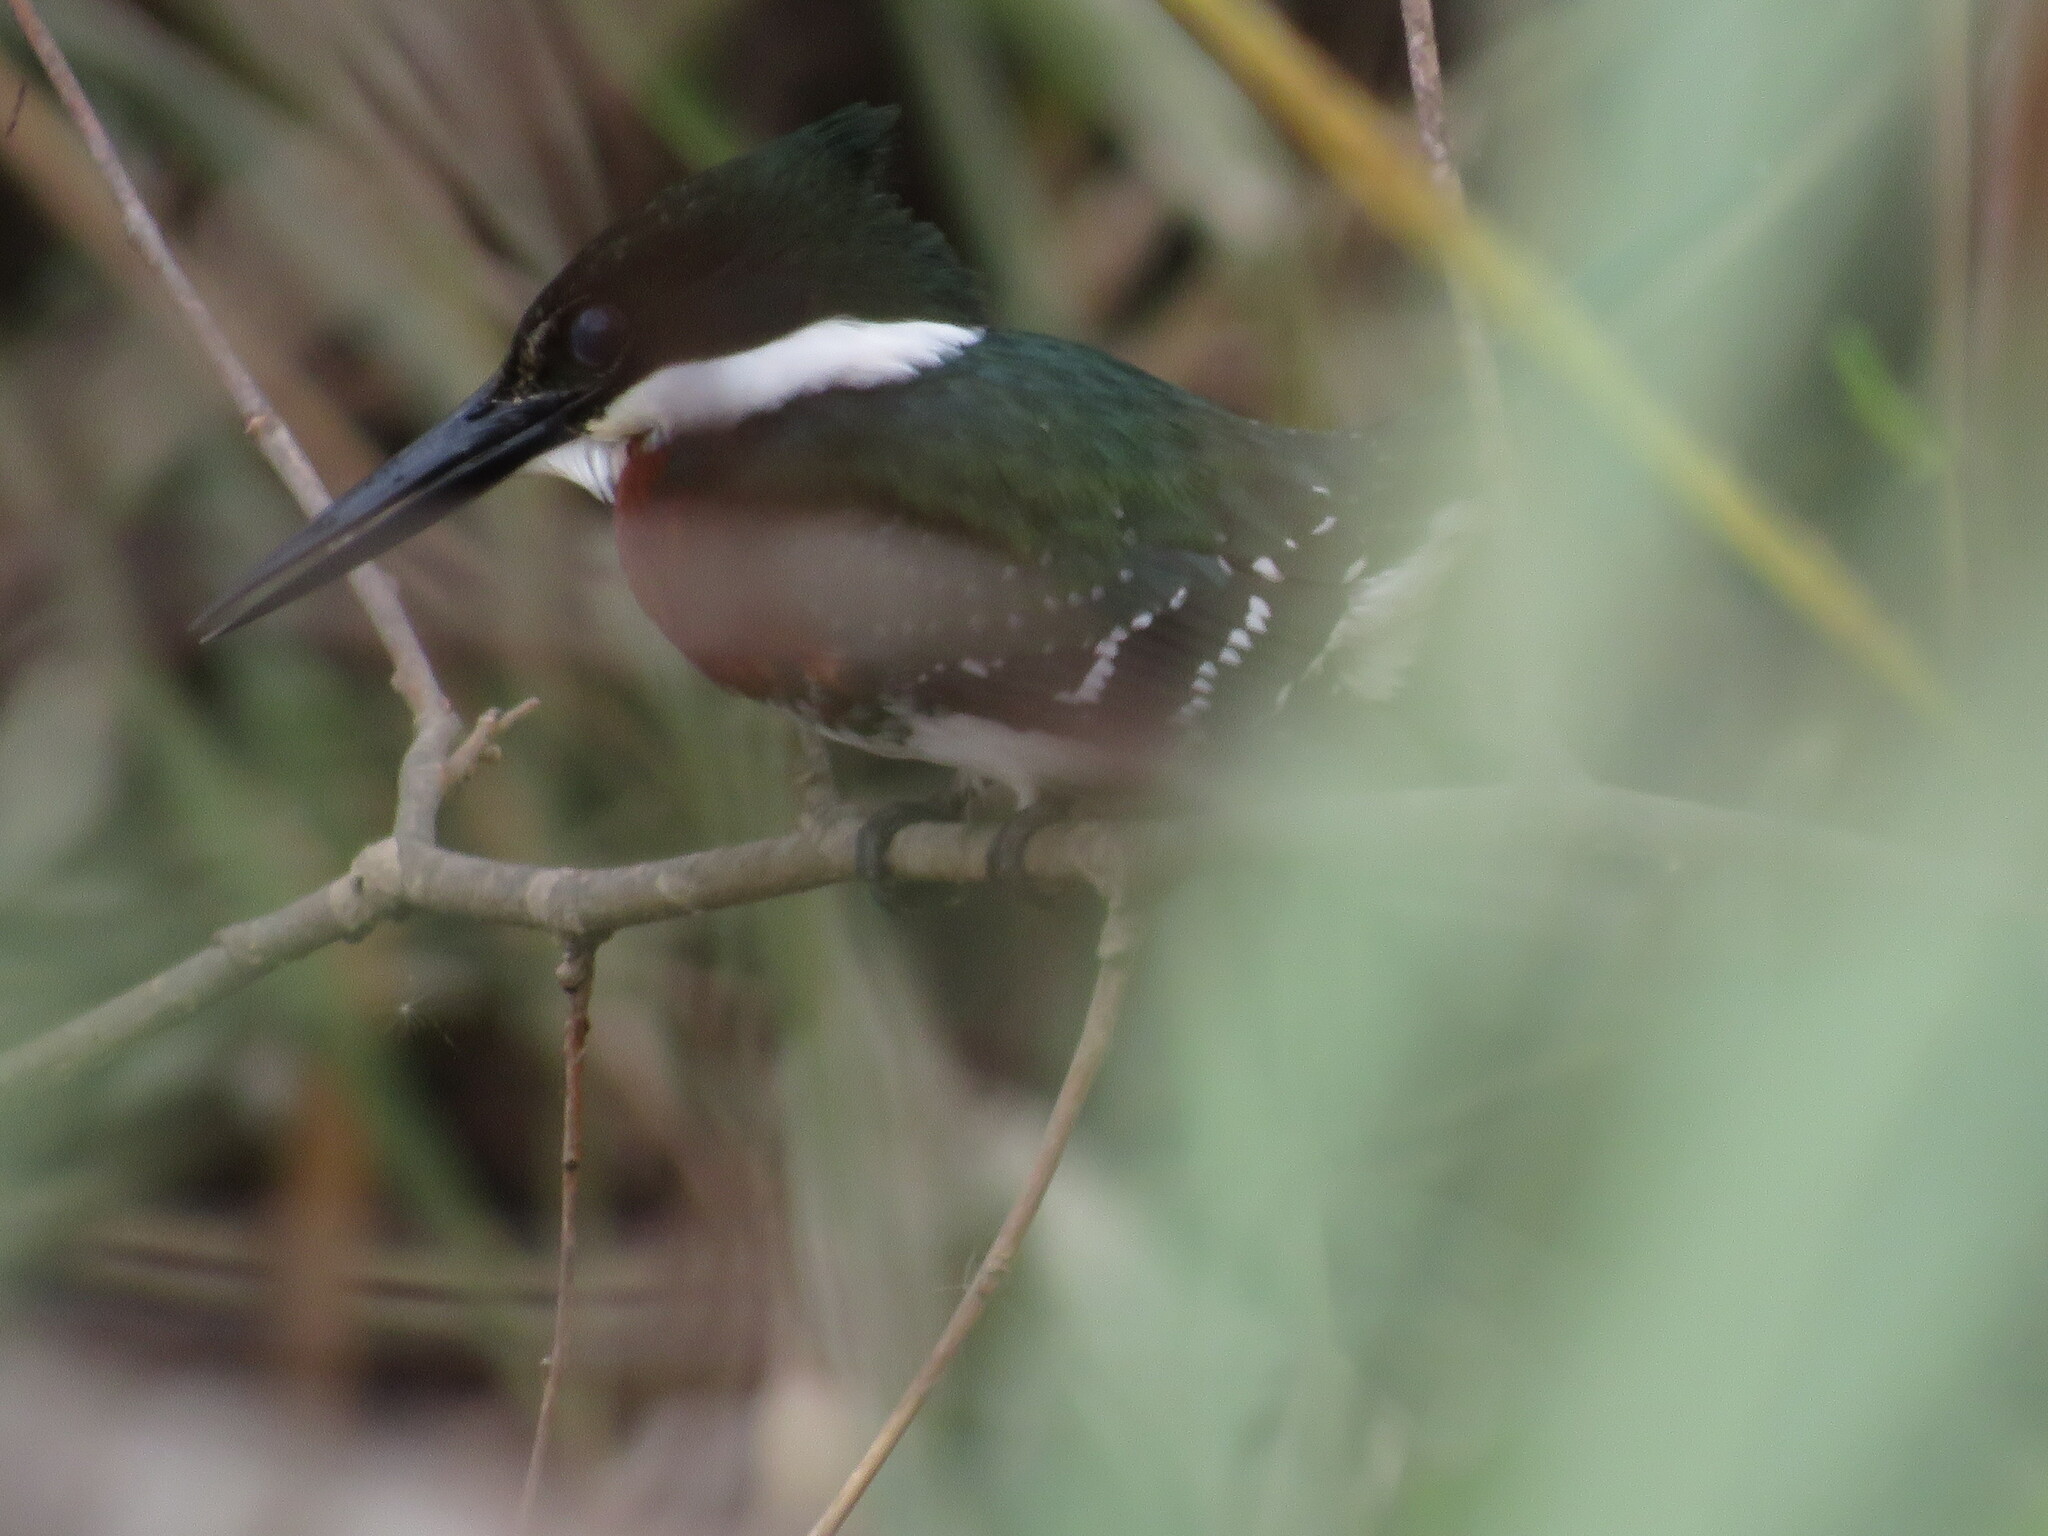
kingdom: Animalia
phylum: Chordata
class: Aves
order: Coraciiformes
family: Alcedinidae
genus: Chloroceryle
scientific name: Chloroceryle americana
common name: Green kingfisher
